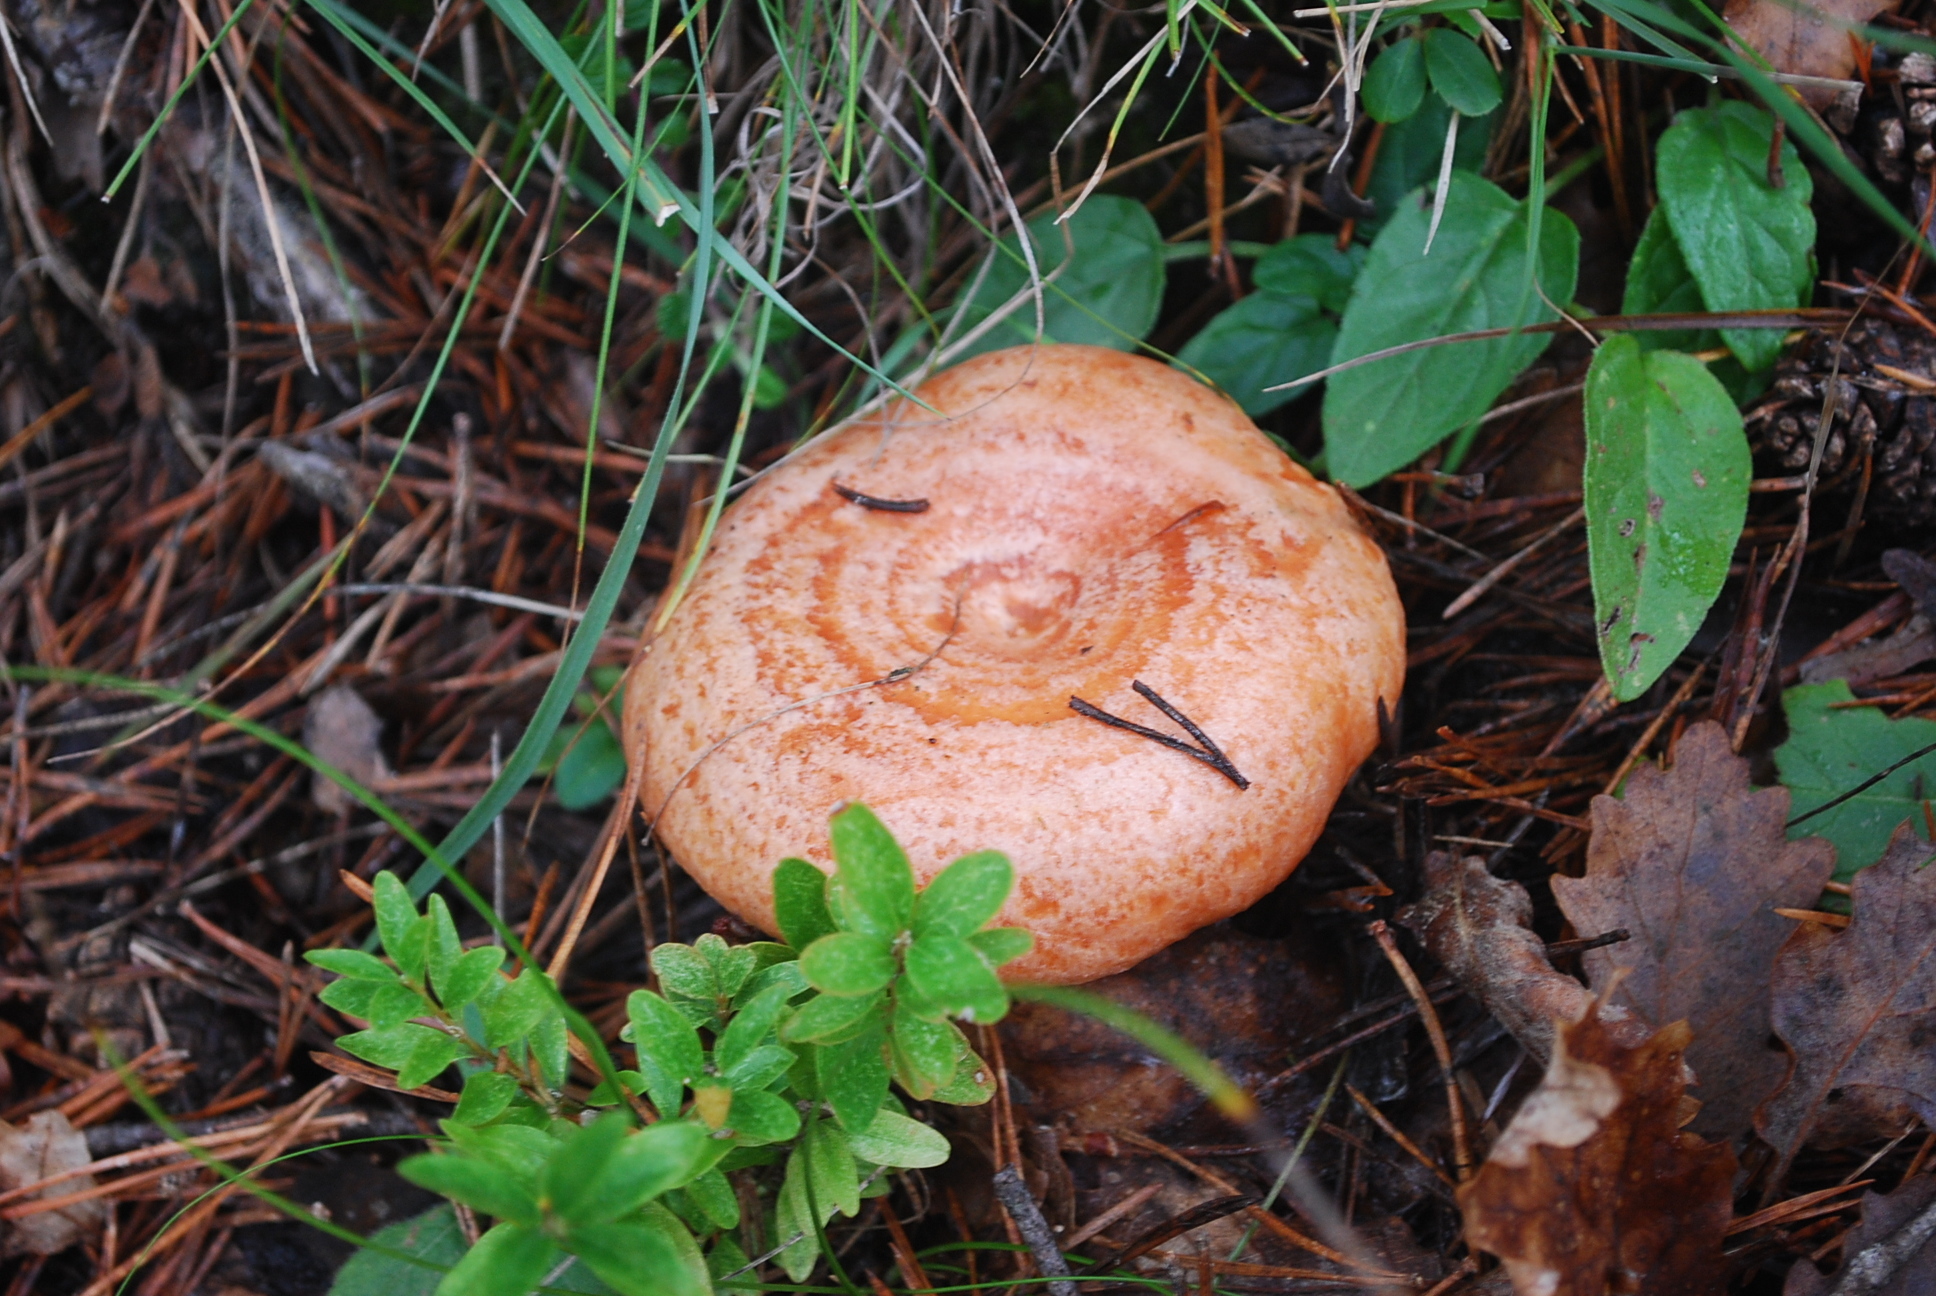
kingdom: Fungi
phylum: Basidiomycota
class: Agaricomycetes
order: Russulales
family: Russulaceae
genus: Lactarius
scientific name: Lactarius deliciosus
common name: Saffron milk-cap
